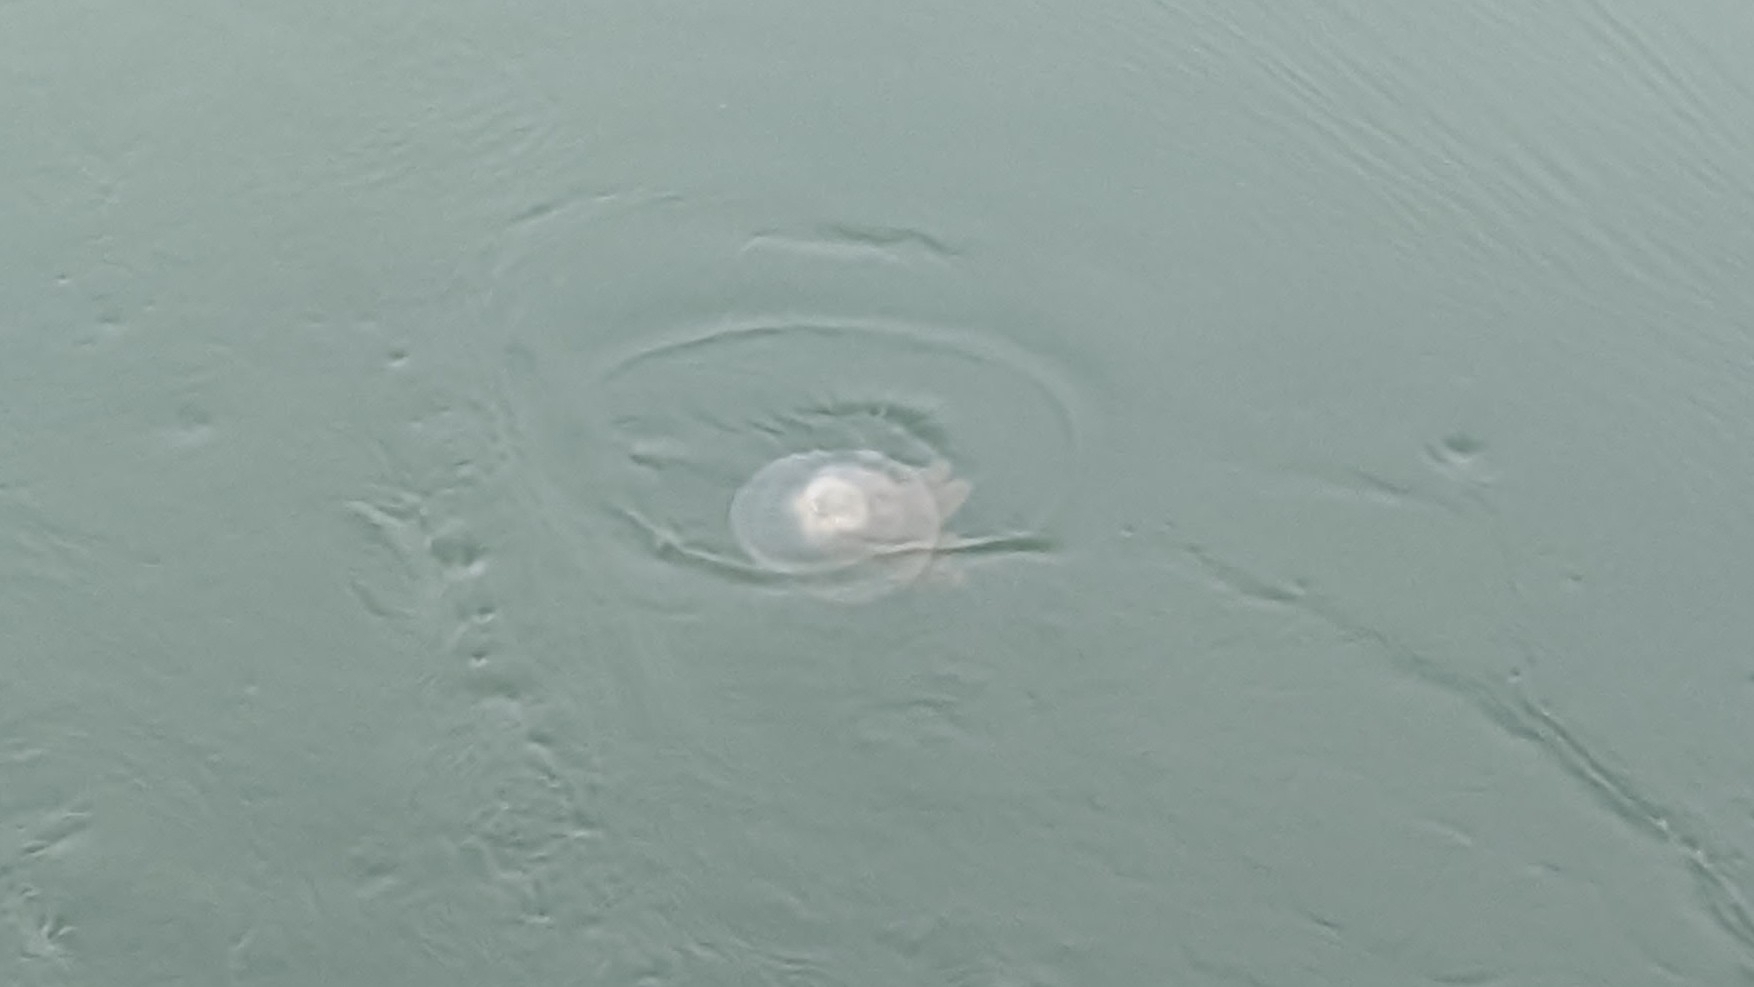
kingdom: Animalia
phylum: Cnidaria
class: Scyphozoa
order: Rhizostomeae
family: Rhizostomatidae
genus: Rhizostoma
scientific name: Rhizostoma octopus
